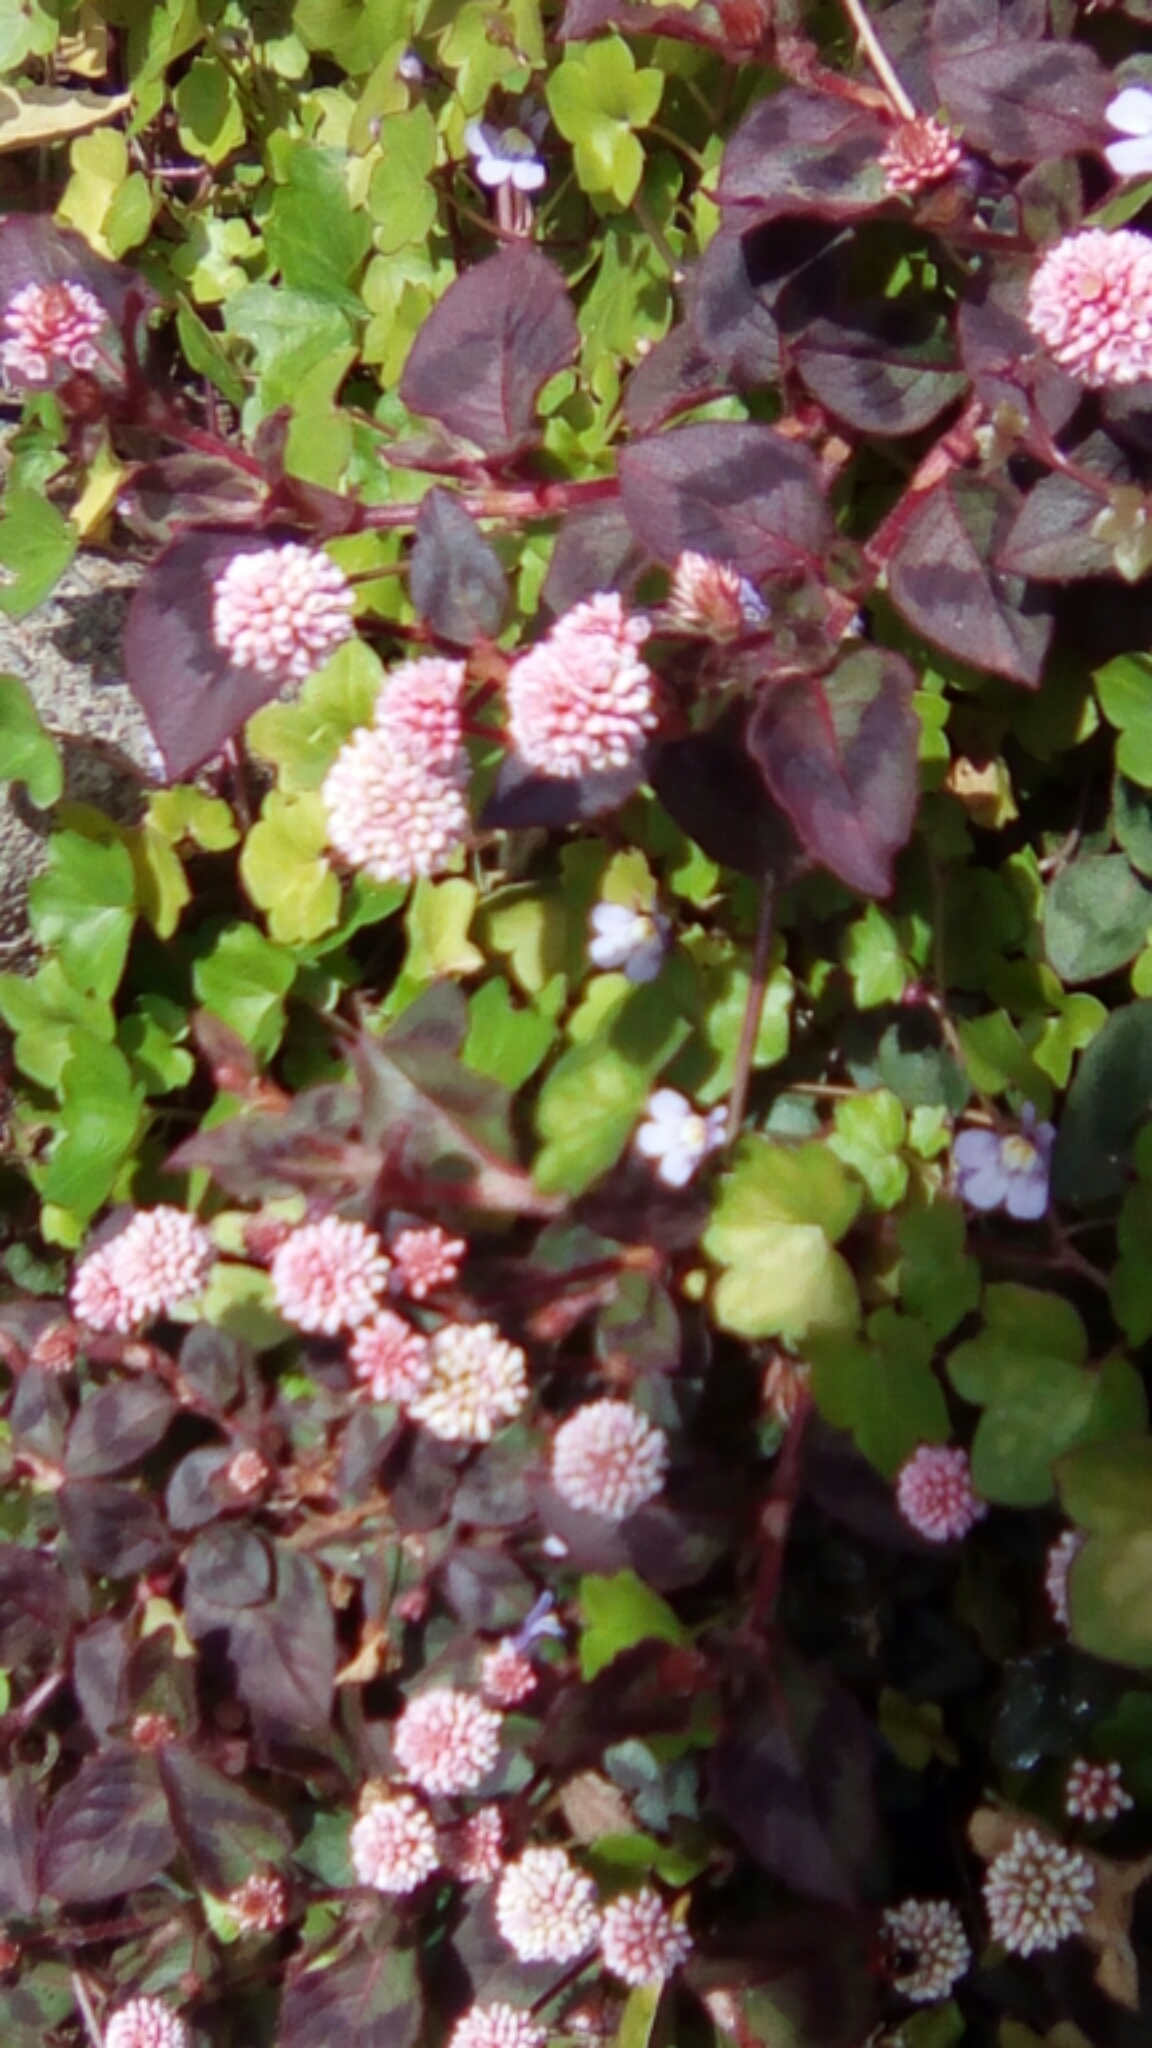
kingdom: Plantae
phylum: Tracheophyta
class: Magnoliopsida
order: Caryophyllales
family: Polygonaceae
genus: Persicaria
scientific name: Persicaria capitata
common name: Pinkhead smartweed
